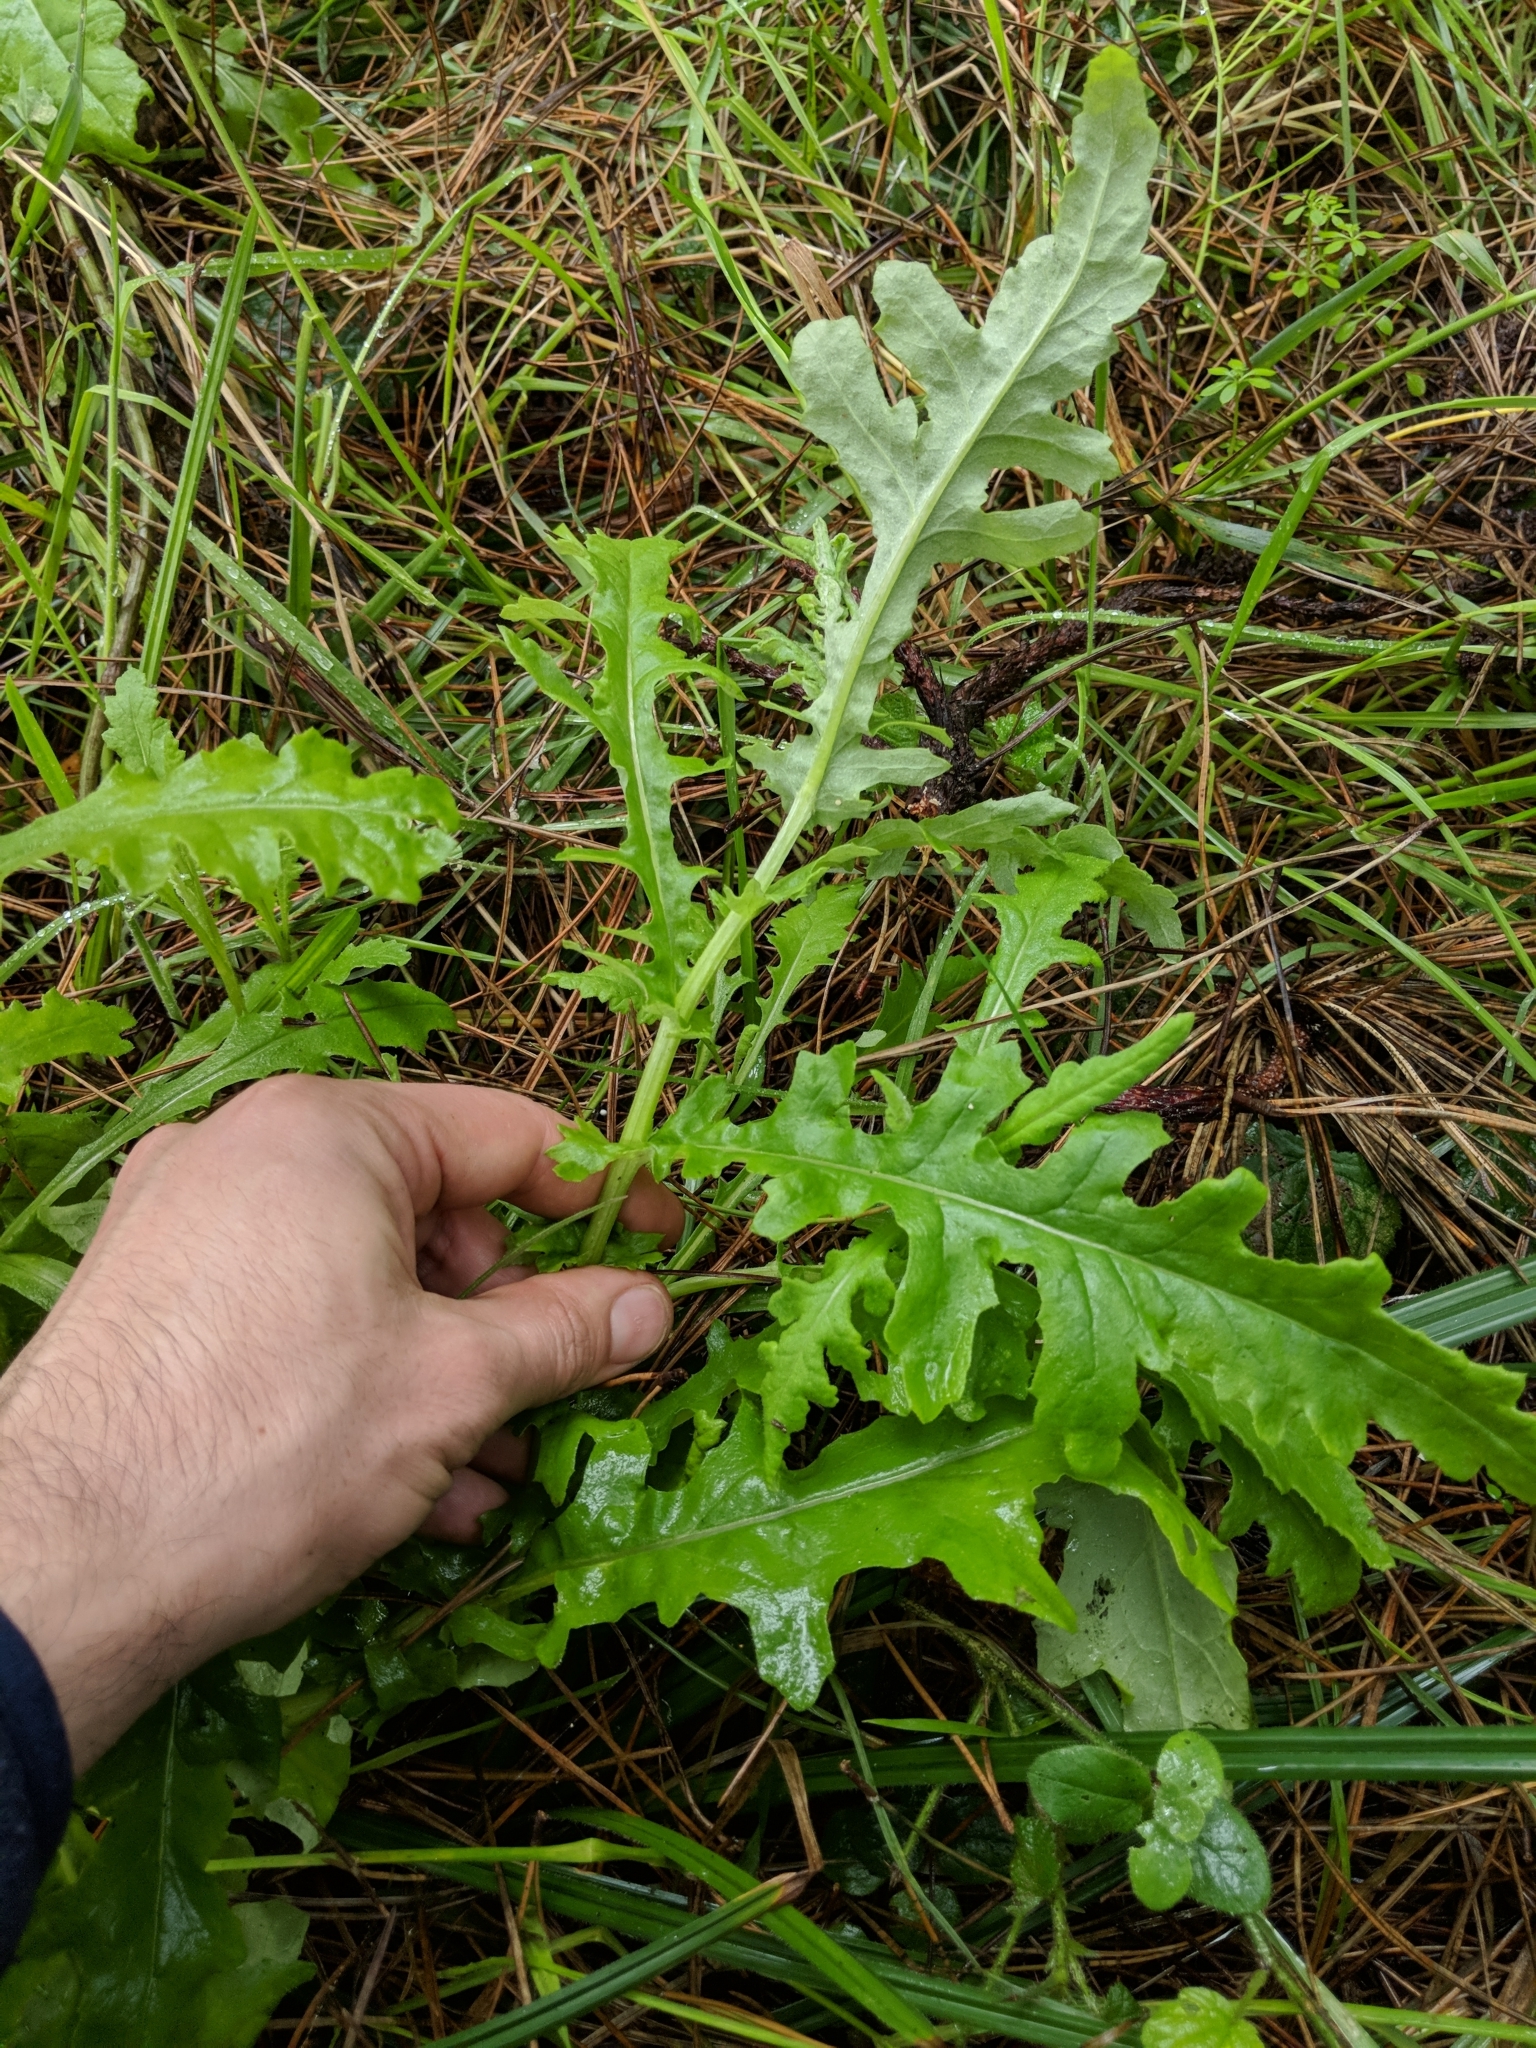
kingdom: Plantae
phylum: Tracheophyta
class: Magnoliopsida
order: Asterales
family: Asteraceae
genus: Senecio
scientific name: Senecio glomeratus
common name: Cutleaf burnweed
